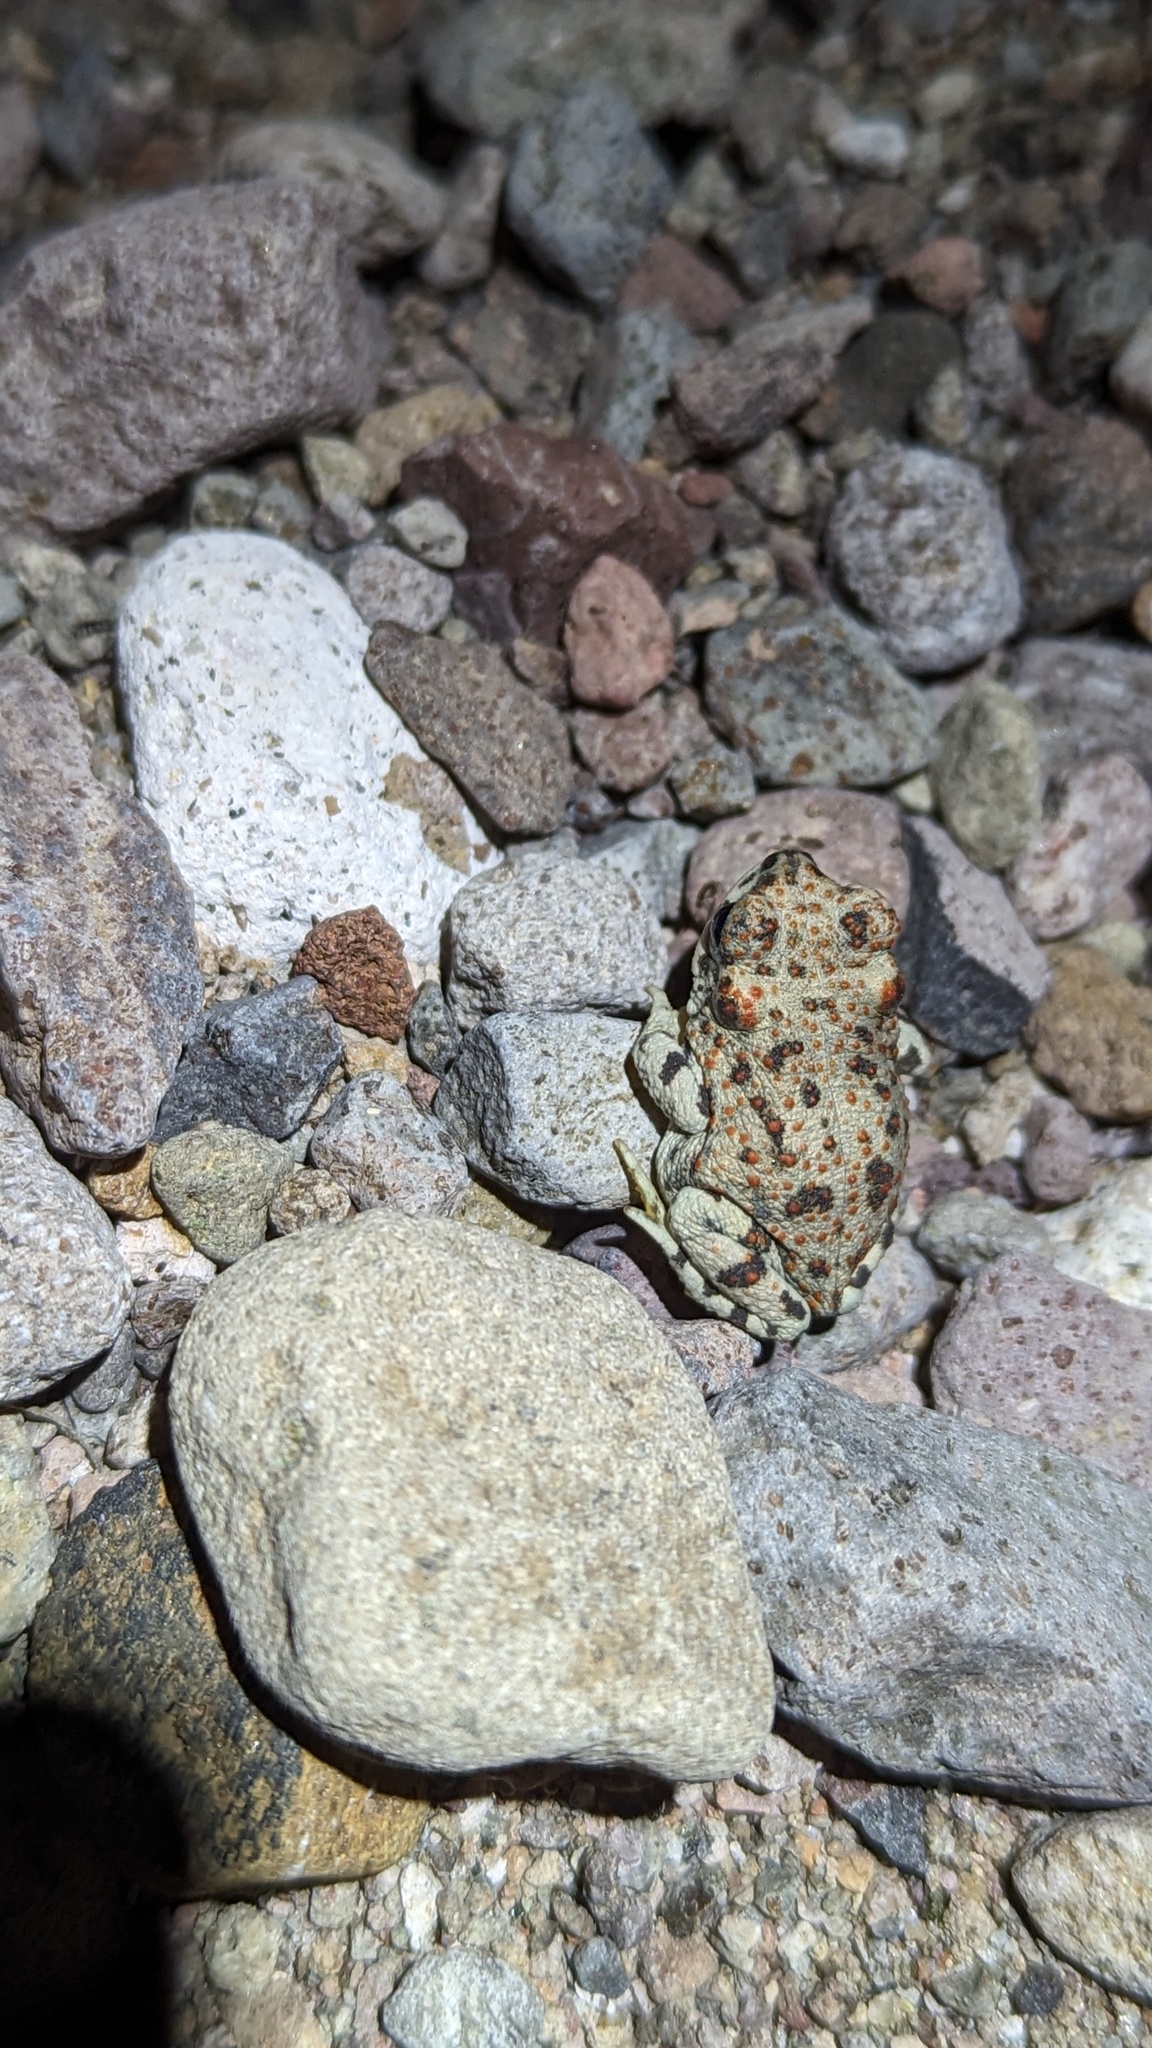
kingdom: Animalia
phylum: Chordata
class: Amphibia
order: Anura
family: Bufonidae
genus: Anaxyrus
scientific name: Anaxyrus punctatus
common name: Red-spotted toad
